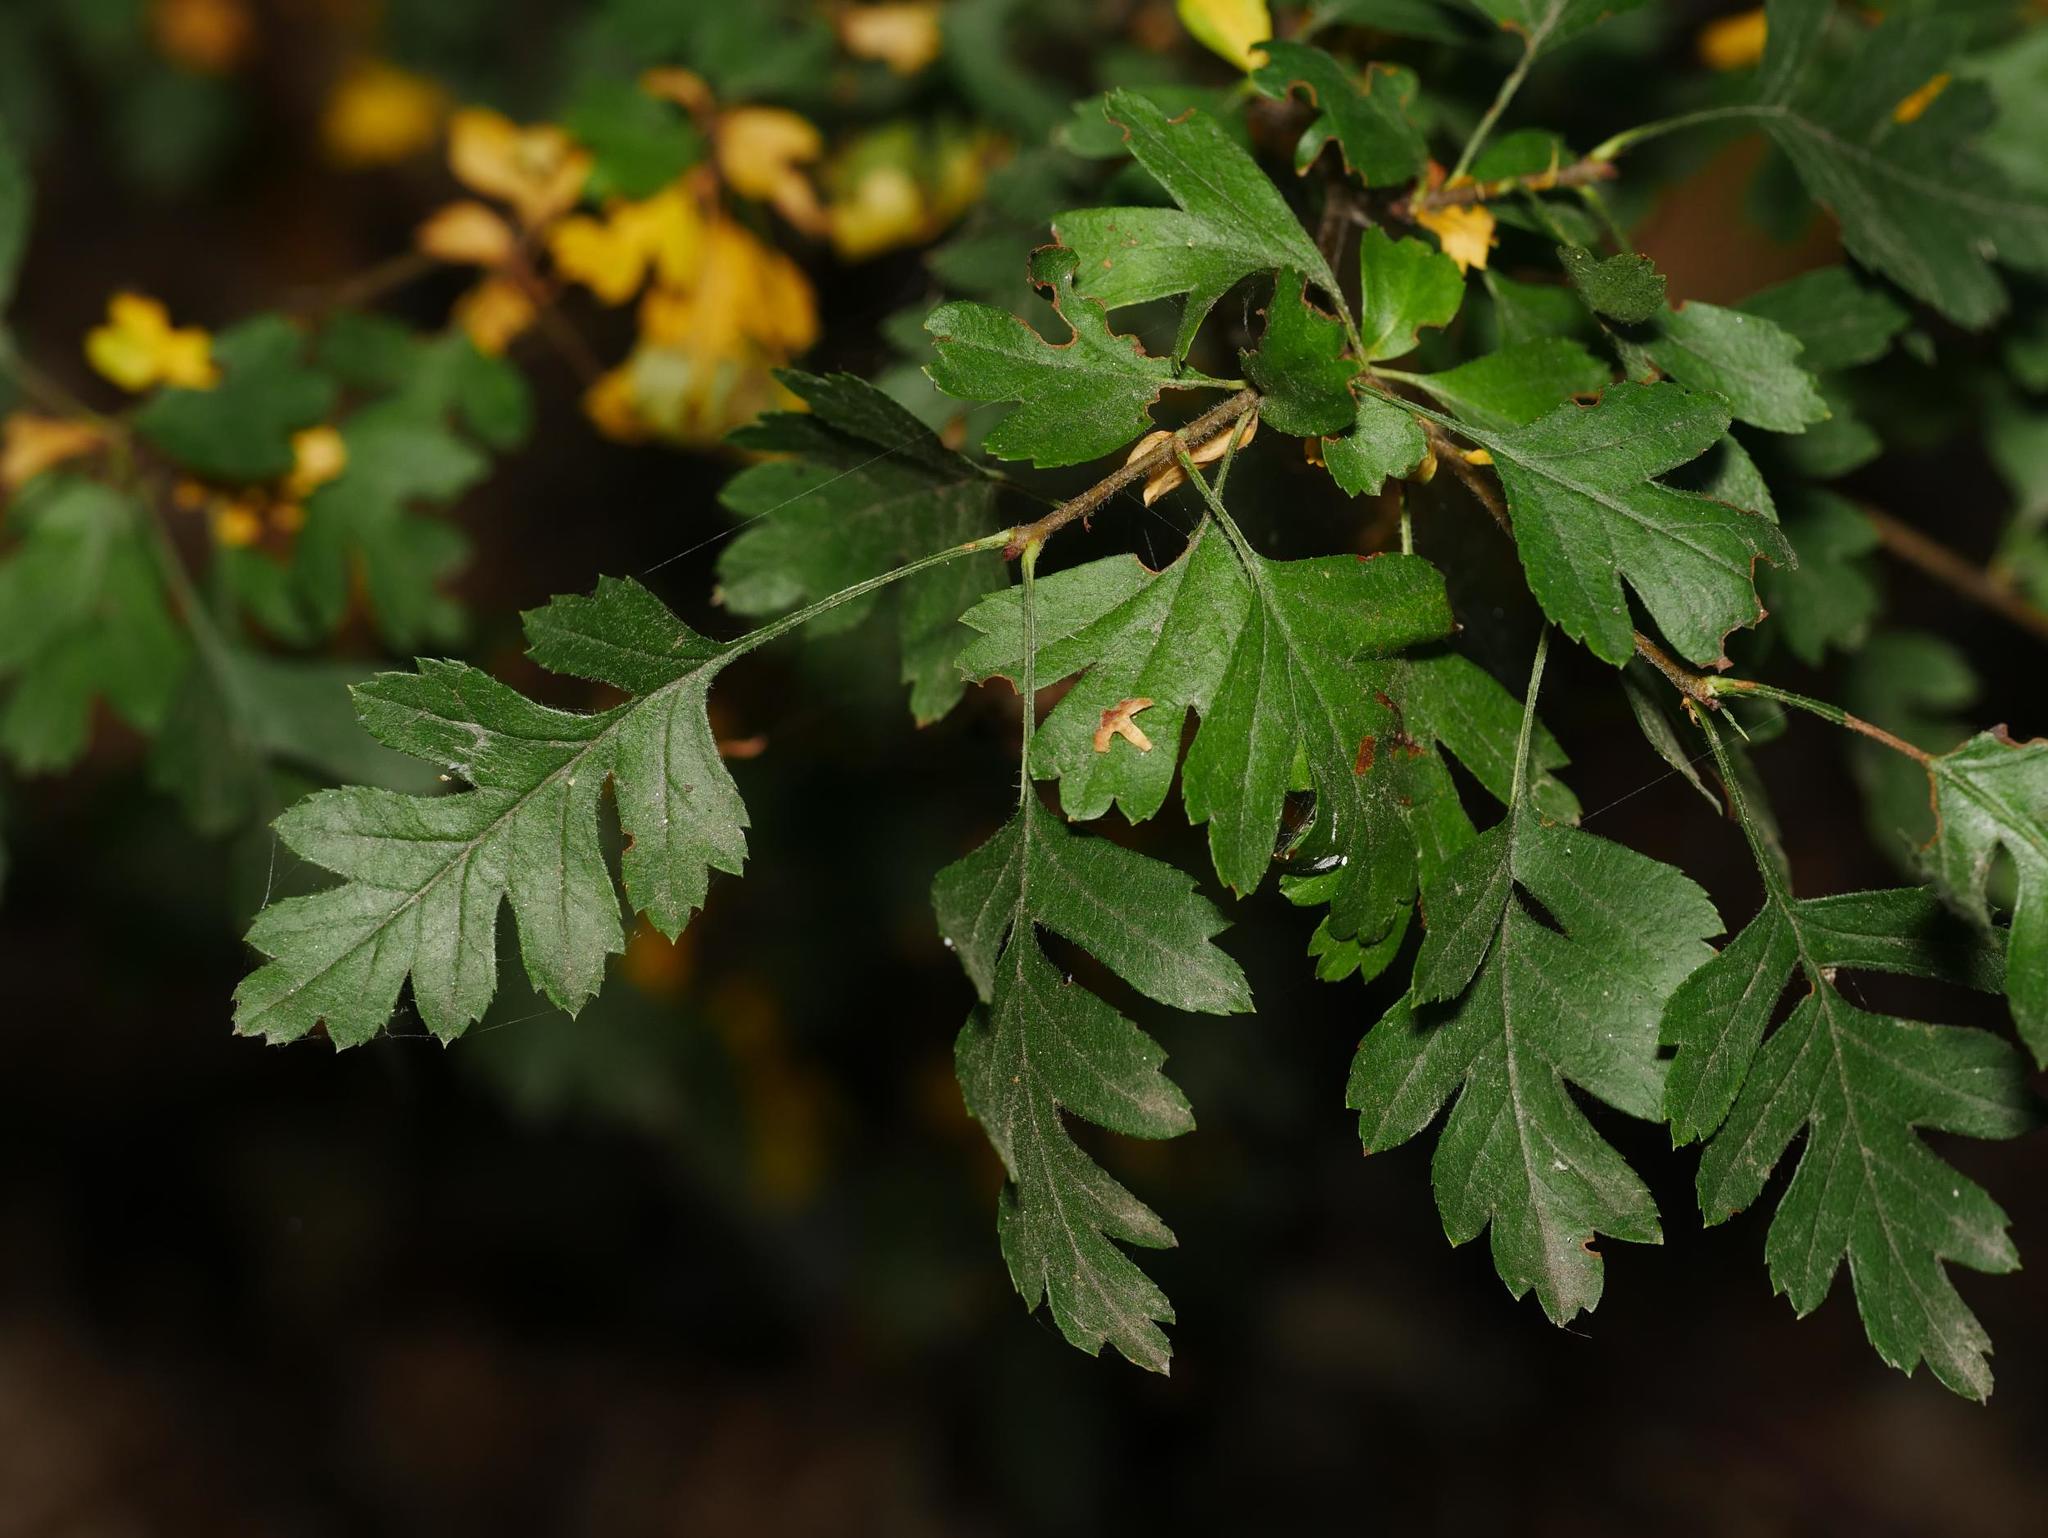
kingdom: Plantae
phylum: Tracheophyta
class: Magnoliopsida
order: Rosales
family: Rosaceae
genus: Crataegus
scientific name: Crataegus monogyna
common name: Hawthorn
